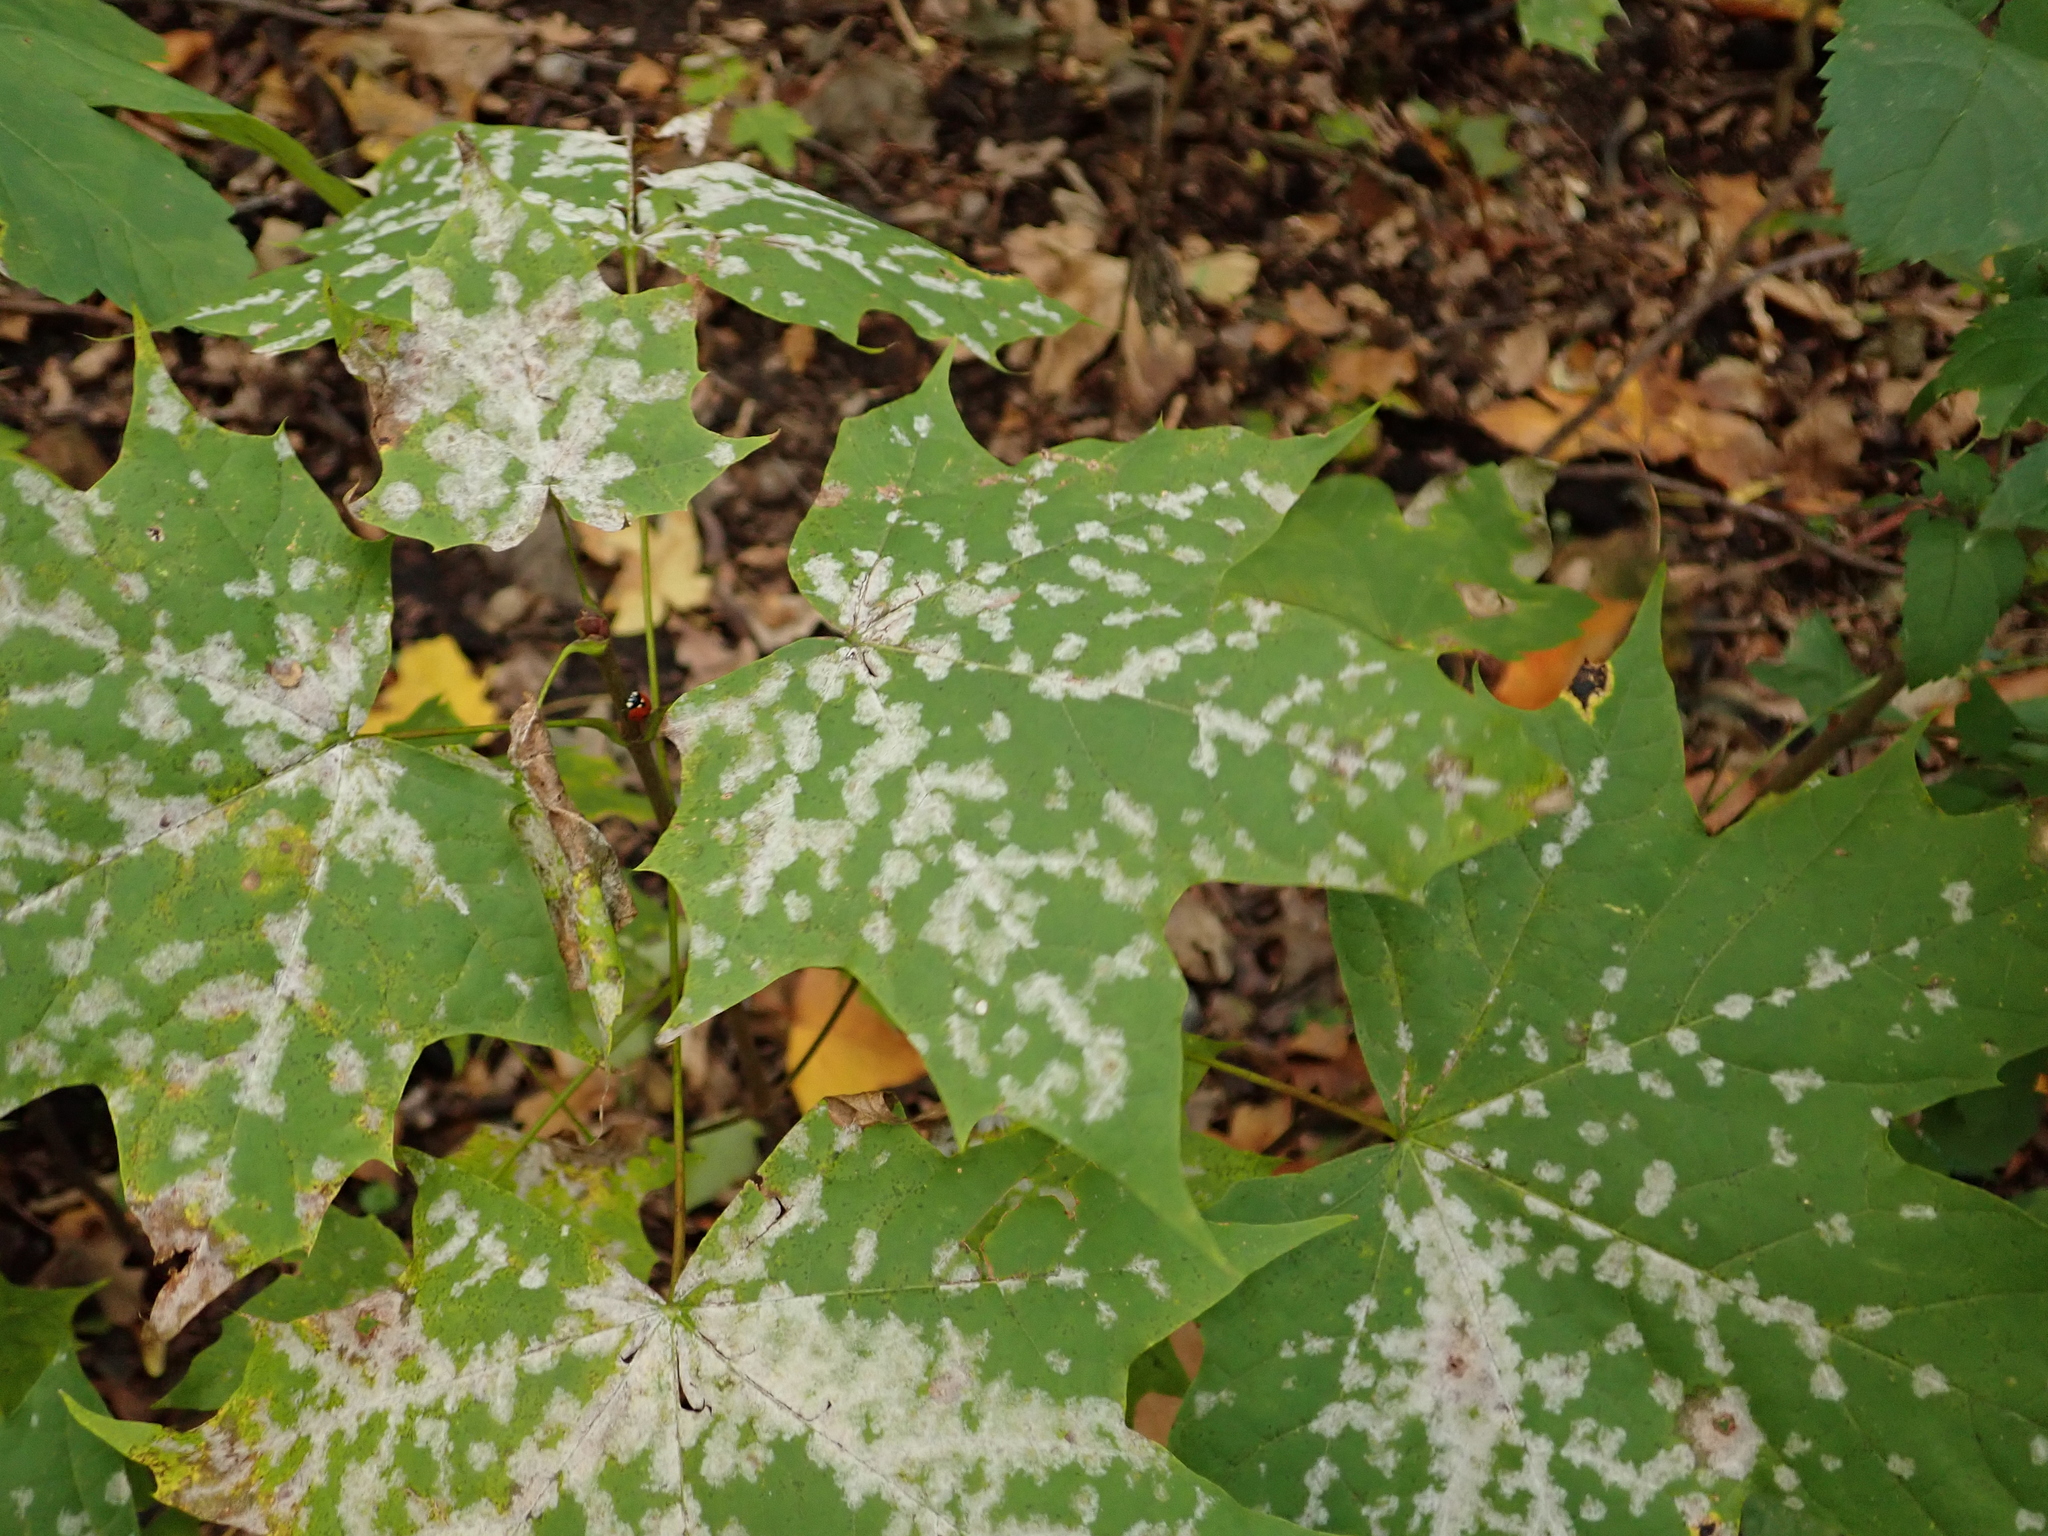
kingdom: Plantae
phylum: Tracheophyta
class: Magnoliopsida
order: Sapindales
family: Sapindaceae
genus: Acer
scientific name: Acer platanoides
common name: Norway maple
